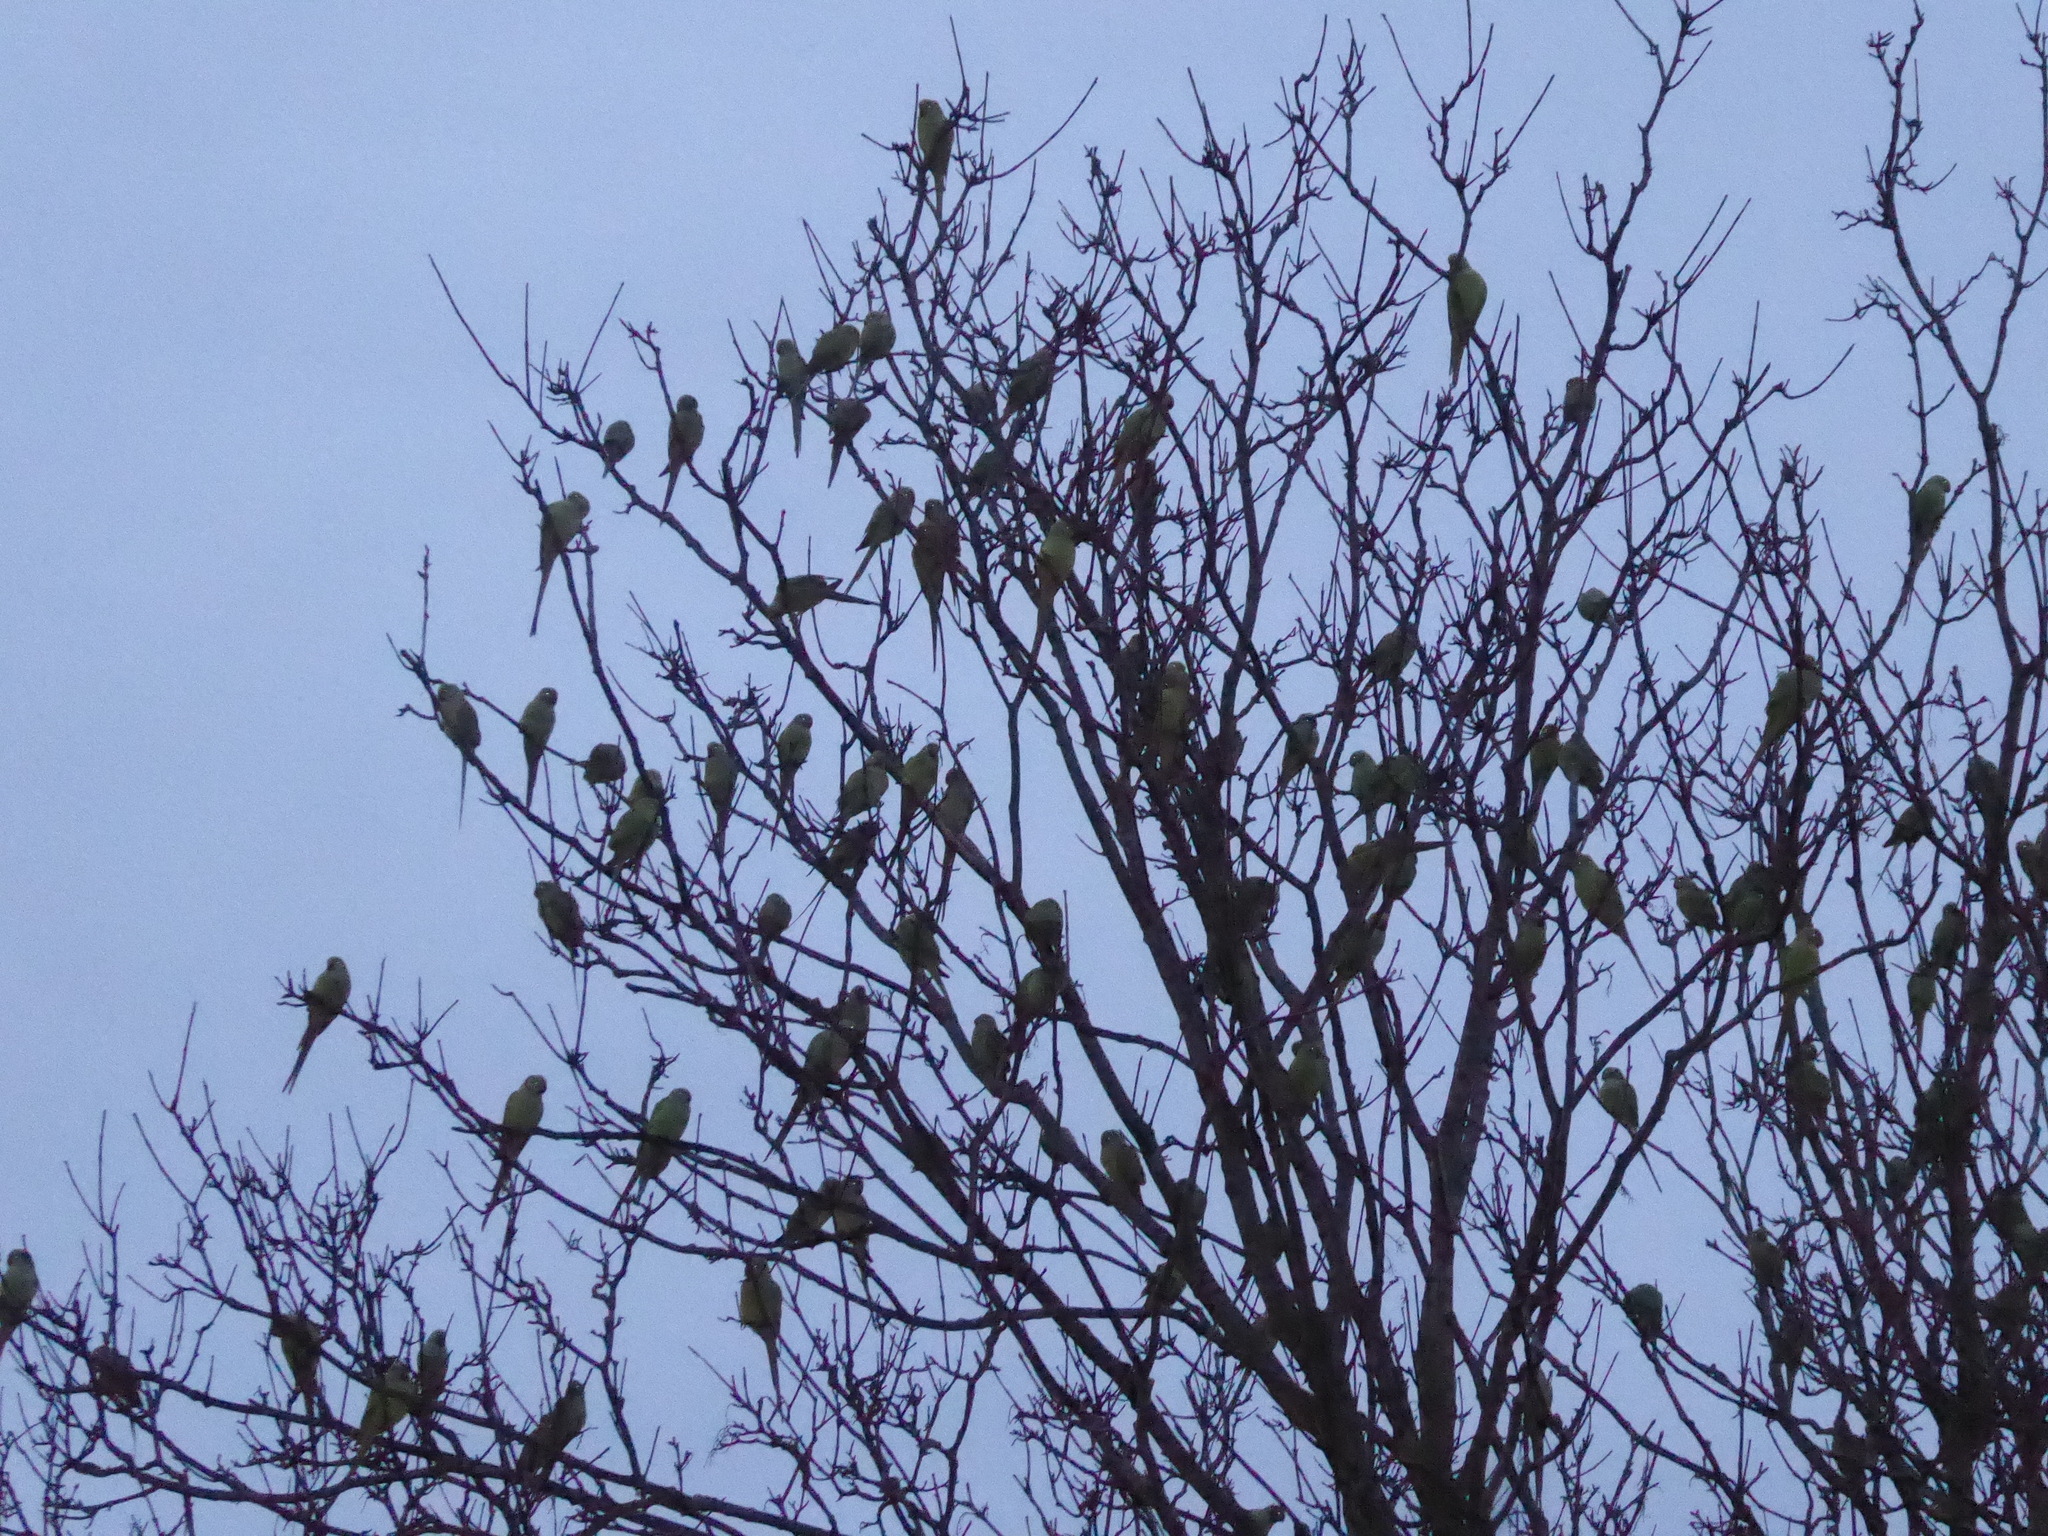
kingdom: Animalia
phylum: Chordata
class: Aves
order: Psittaciformes
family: Psittacidae
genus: Psittacula
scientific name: Psittacula krameri
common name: Rose-ringed parakeet
